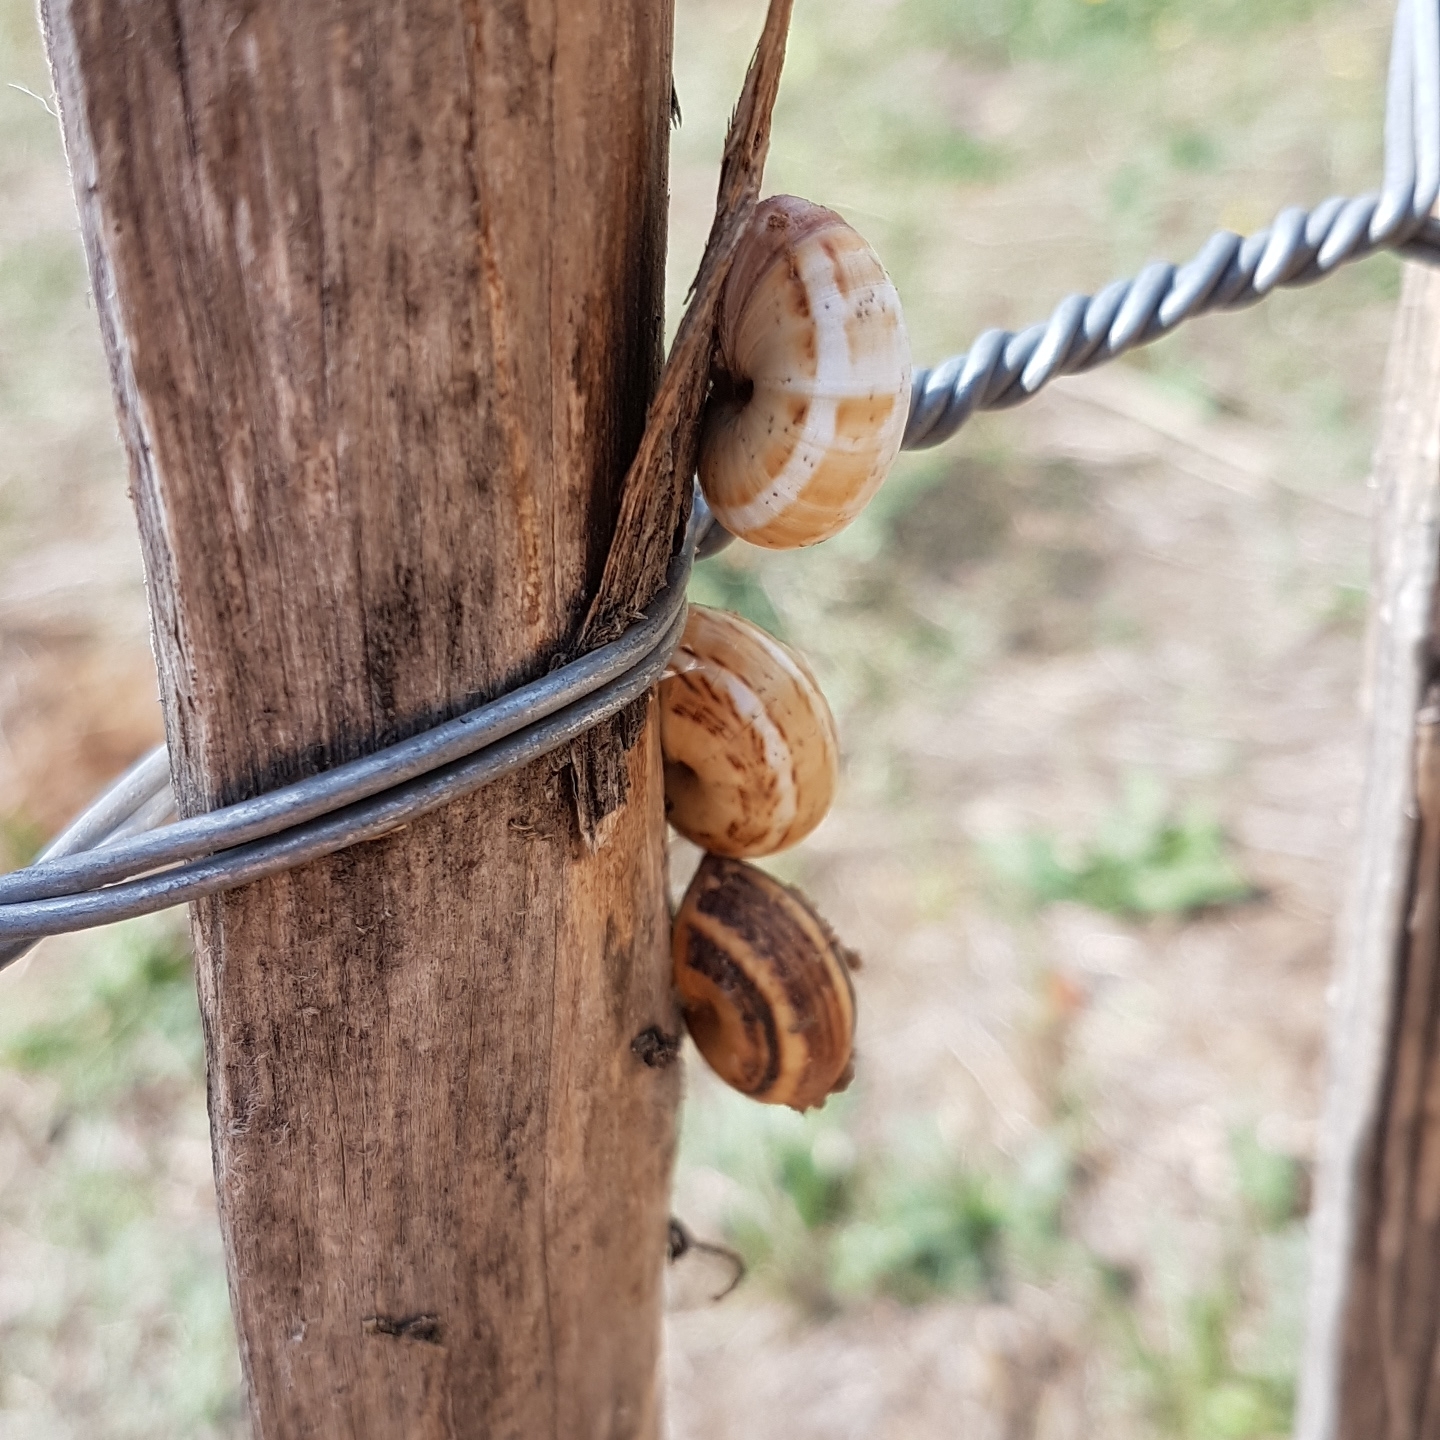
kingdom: Animalia
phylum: Mollusca
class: Gastropoda
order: Stylommatophora
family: Helicidae
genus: Theba
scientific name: Theba pisana
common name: White snail
